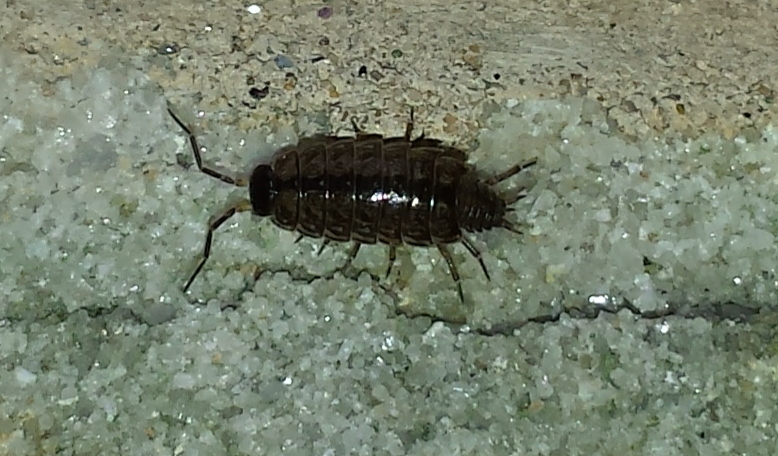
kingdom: Animalia
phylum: Arthropoda
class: Malacostraca
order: Isopoda
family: Philosciidae
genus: Philoscia
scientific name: Philoscia muscorum
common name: Common striped woodlouse
